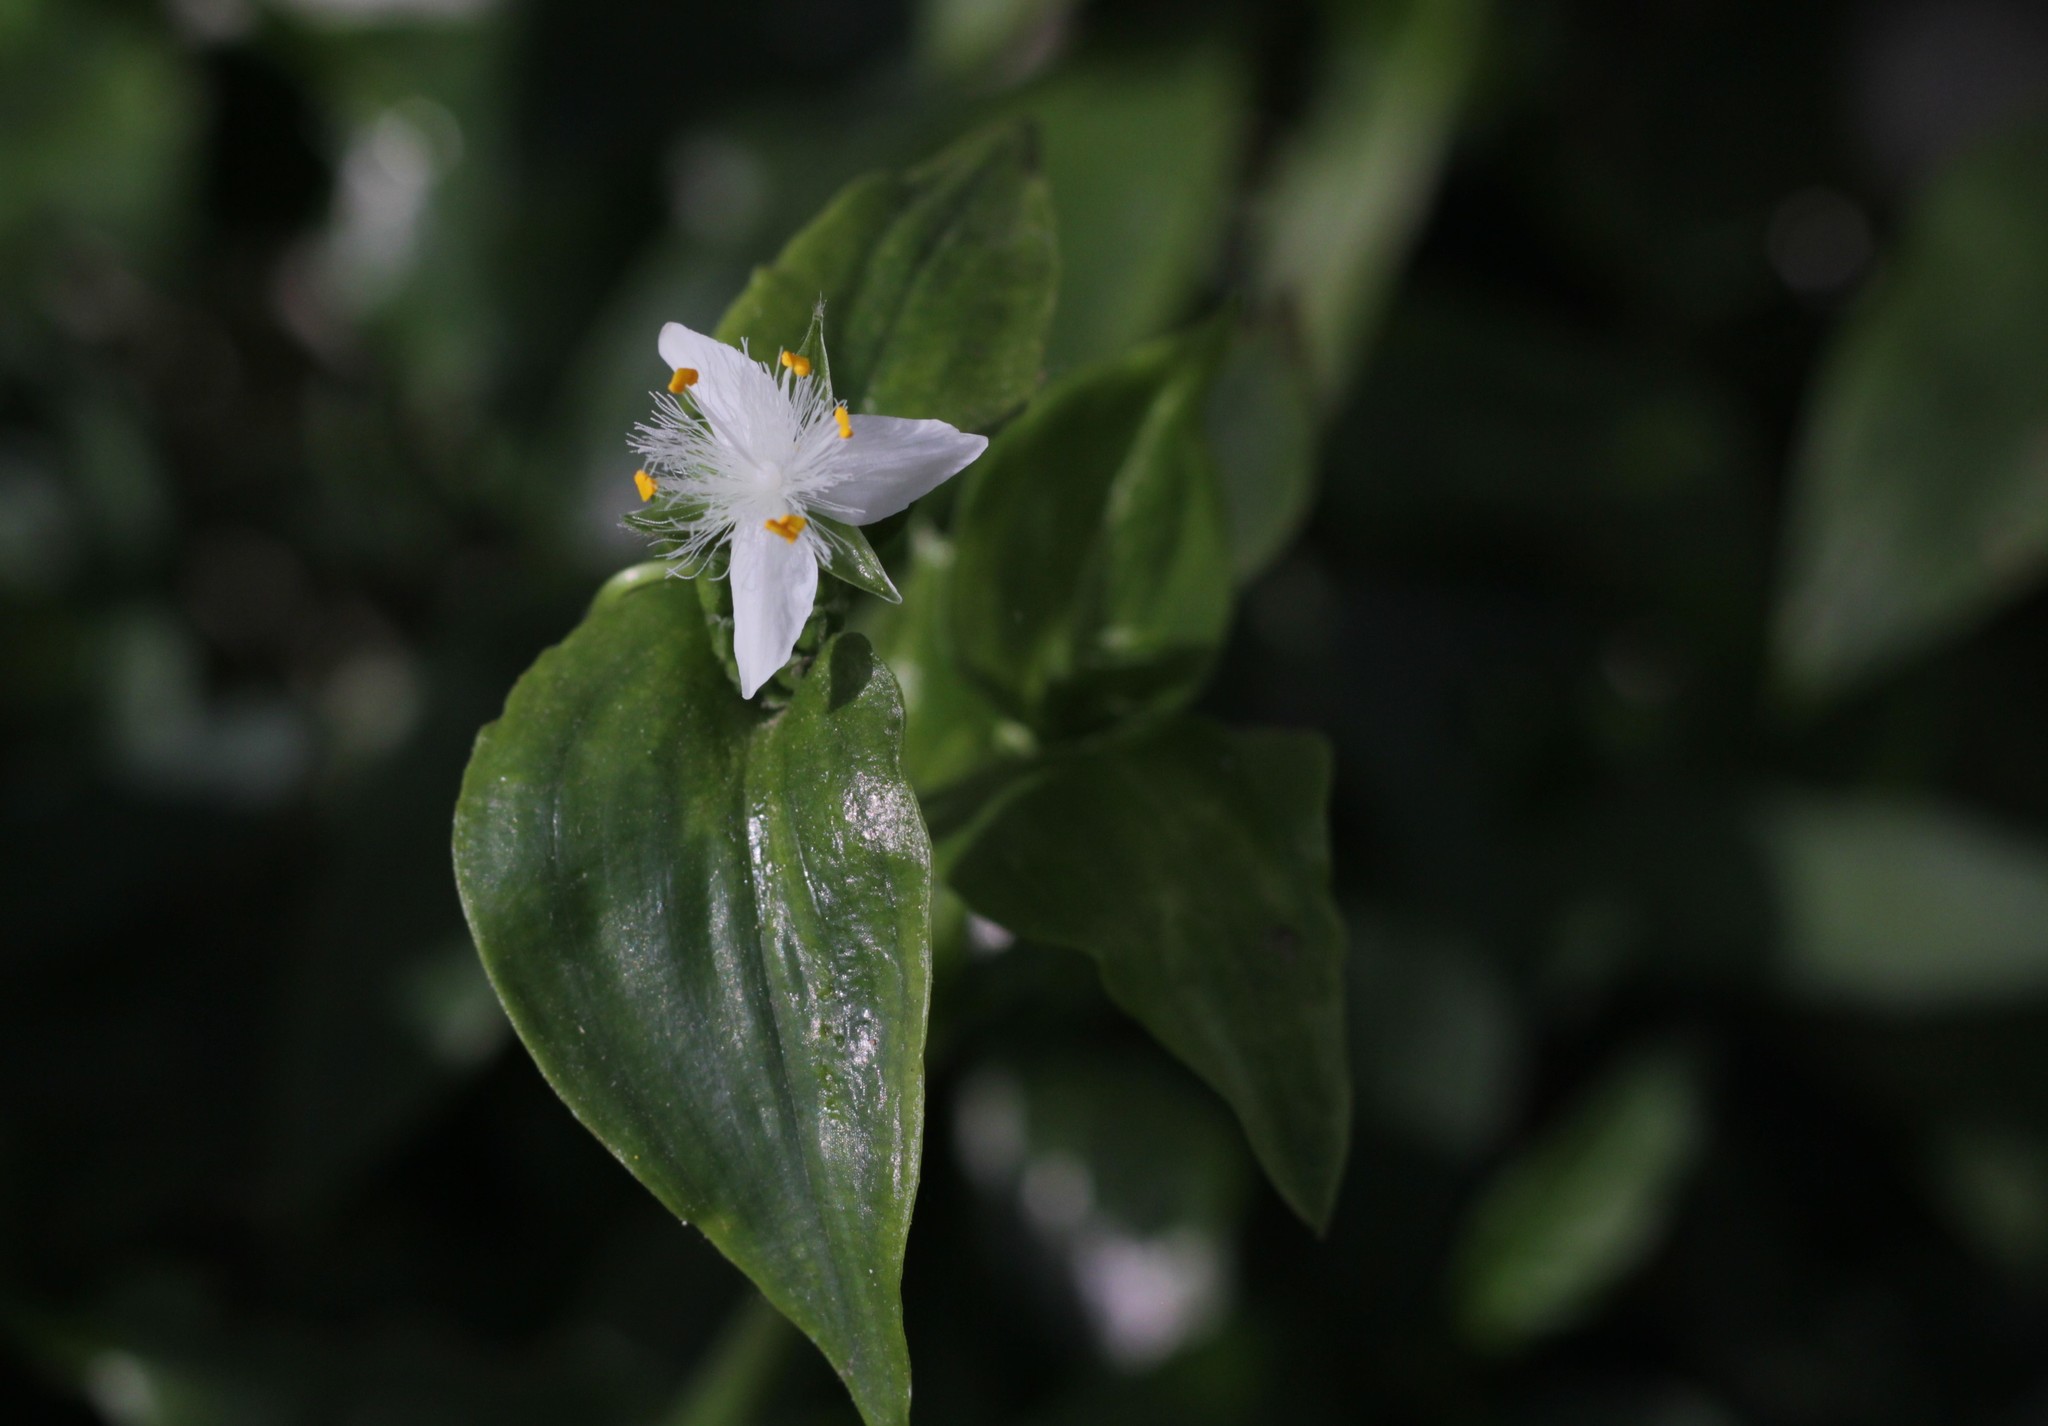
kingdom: Plantae
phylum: Tracheophyta
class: Liliopsida
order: Commelinales
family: Commelinaceae
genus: Tradescantia
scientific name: Tradescantia fluminensis
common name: Wandering-jew
